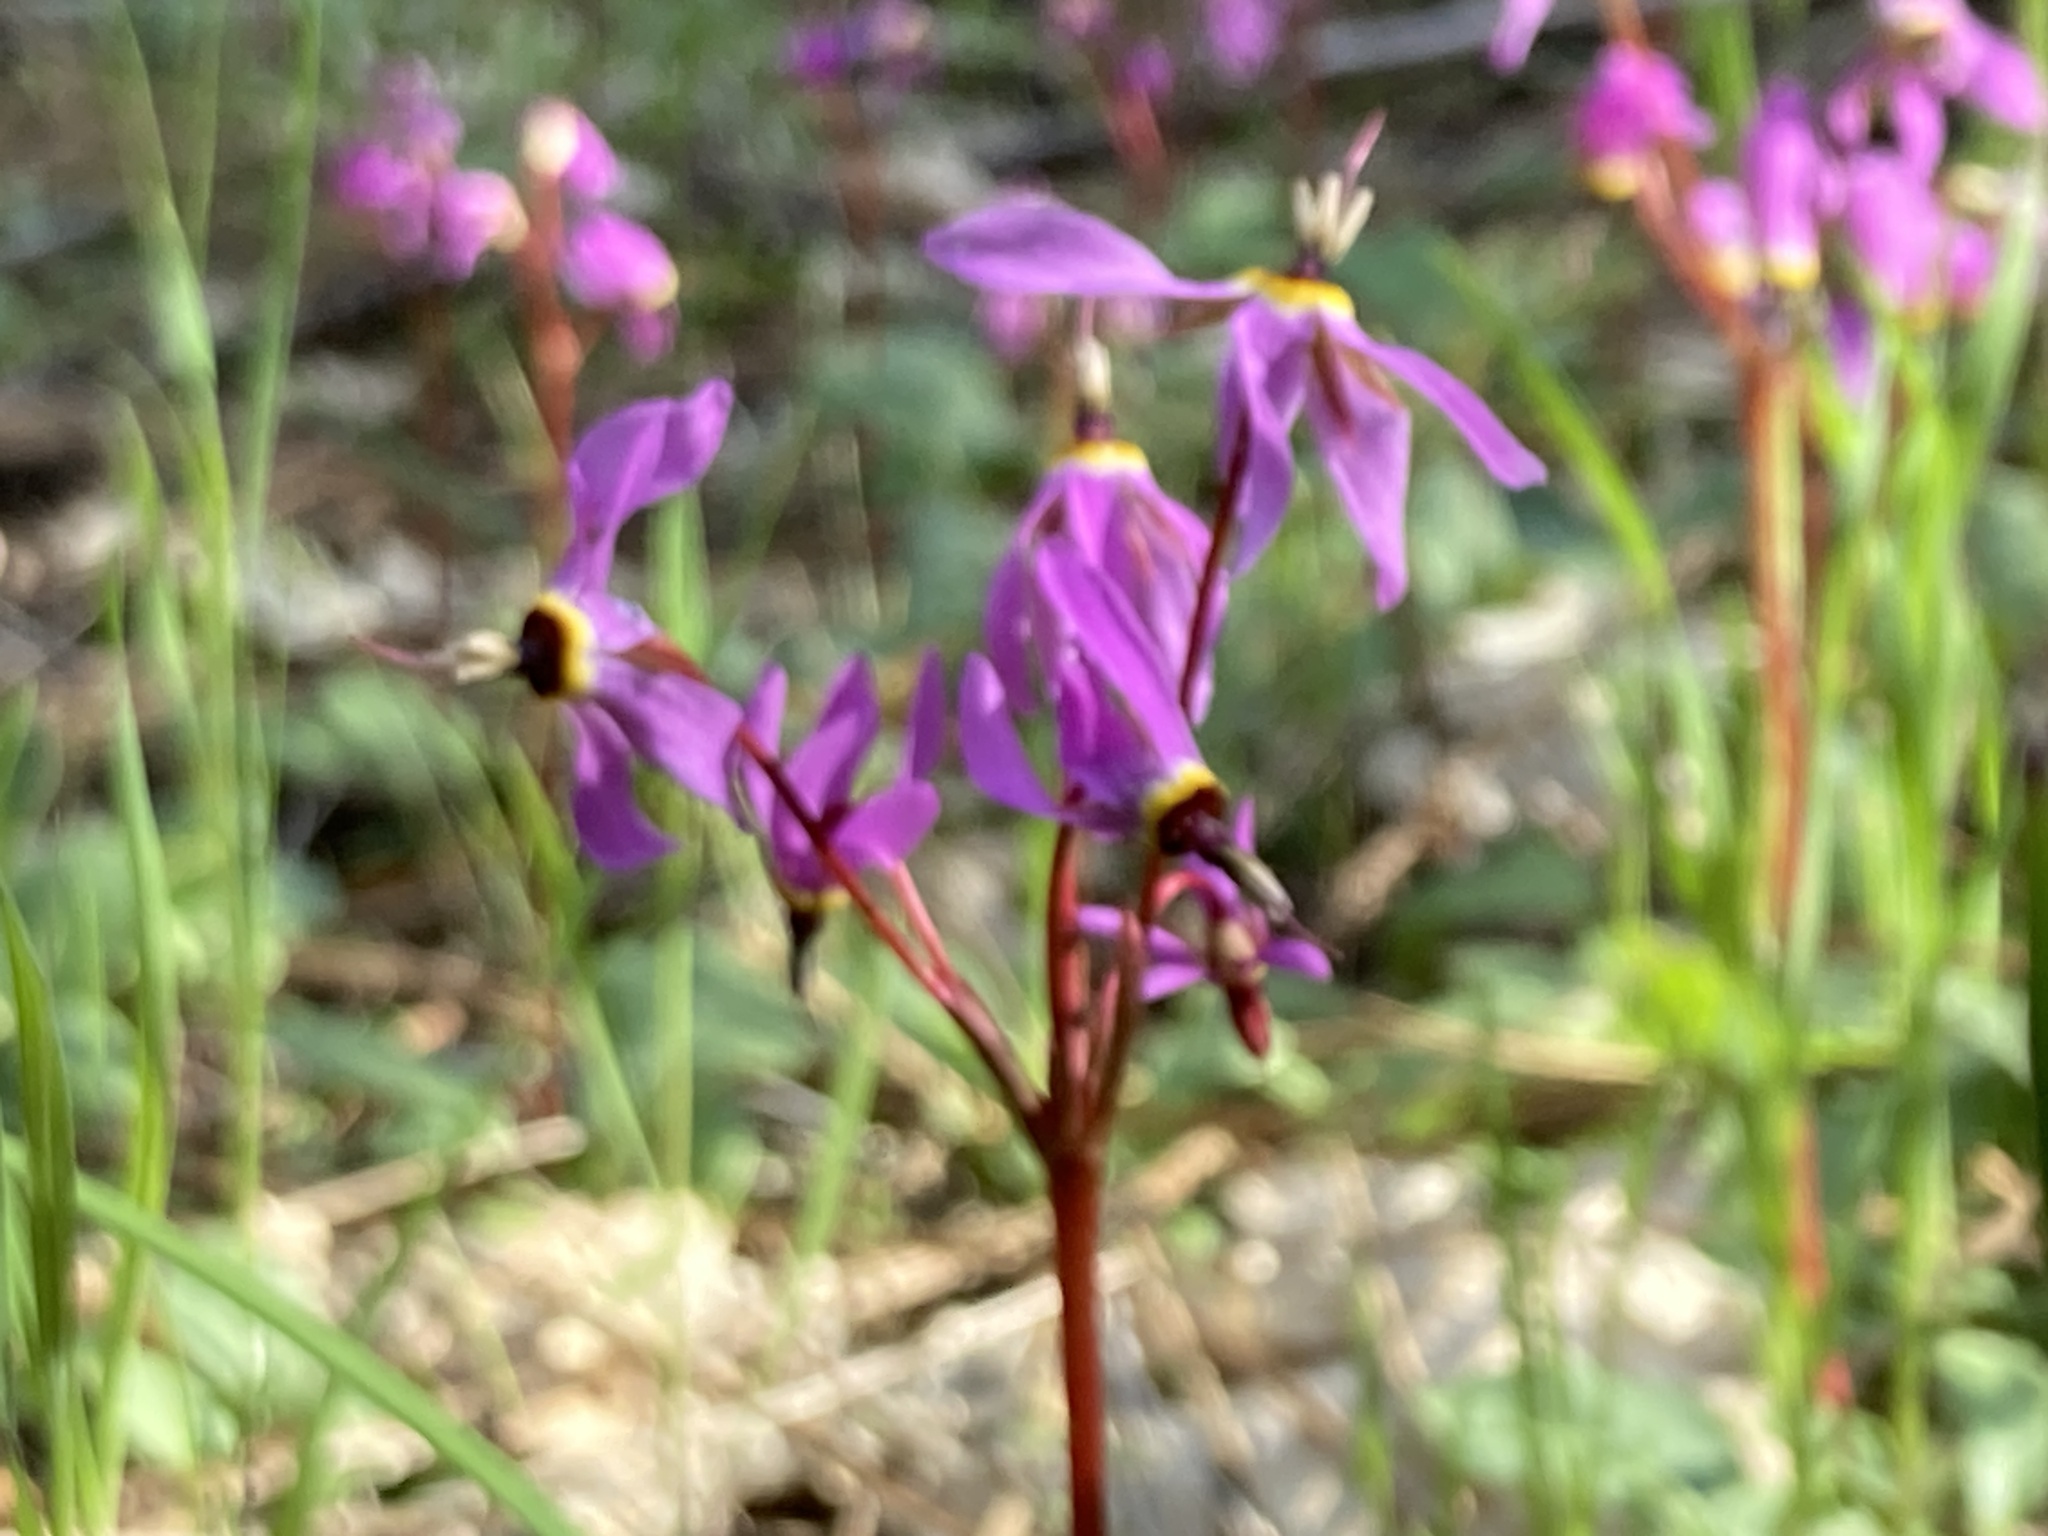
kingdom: Plantae
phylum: Tracheophyta
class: Magnoliopsida
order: Ericales
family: Primulaceae
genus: Dodecatheon
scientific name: Dodecatheon hendersonii
